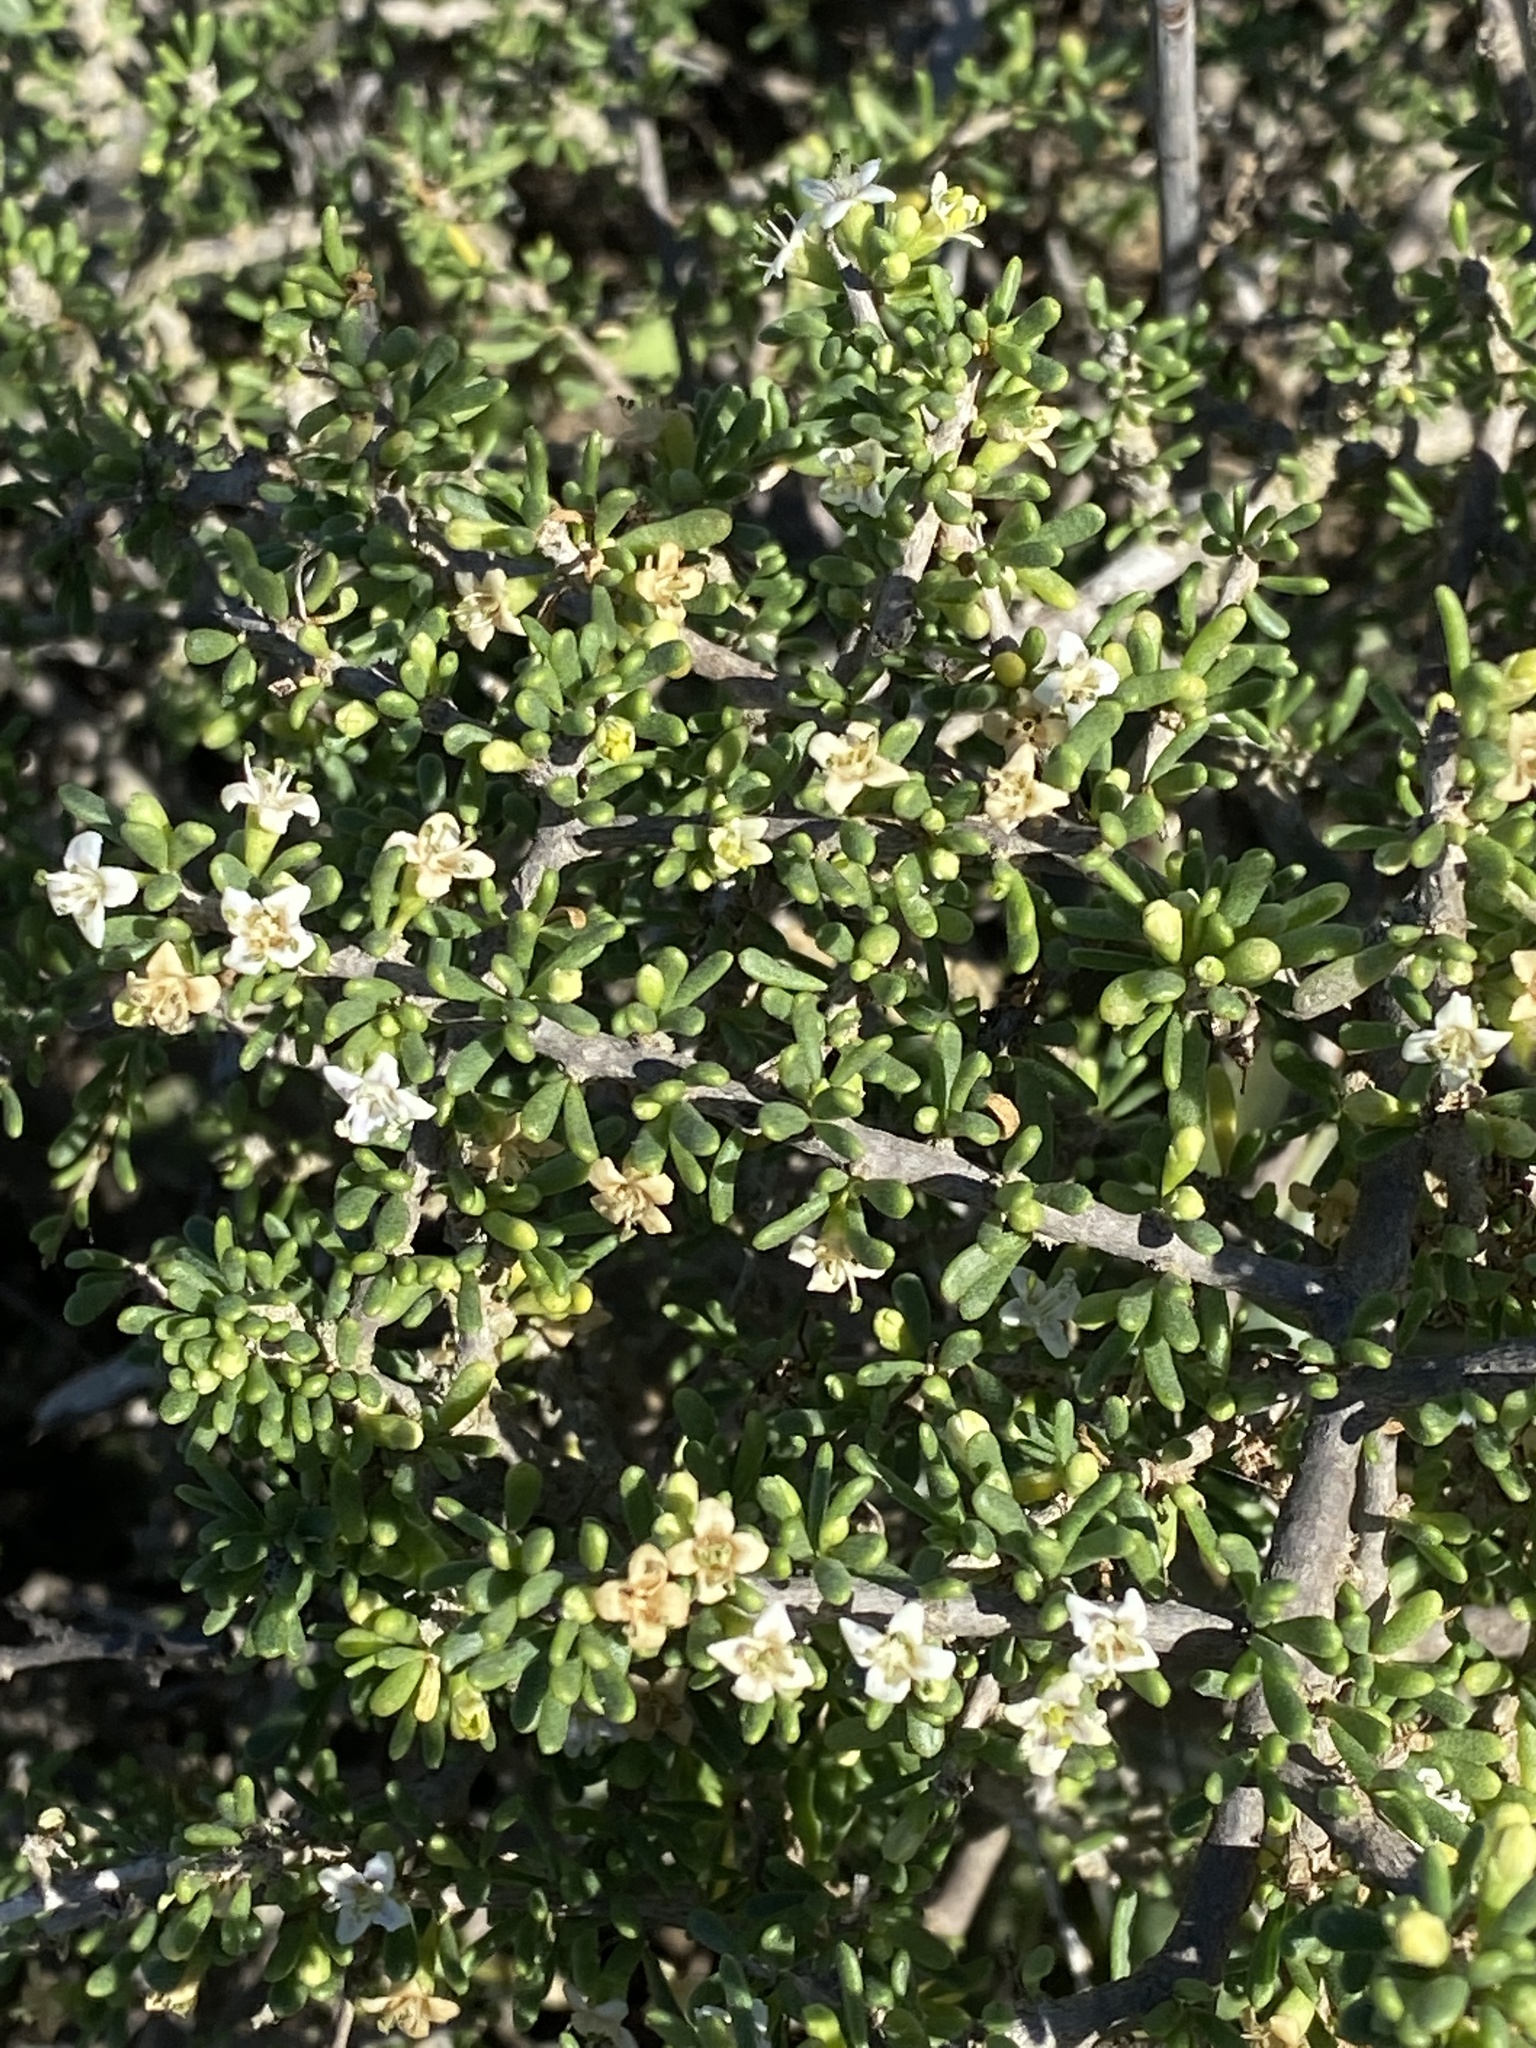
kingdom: Plantae
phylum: Tracheophyta
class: Magnoliopsida
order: Solanales
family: Solanaceae
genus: Lycium
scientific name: Lycium californicum
